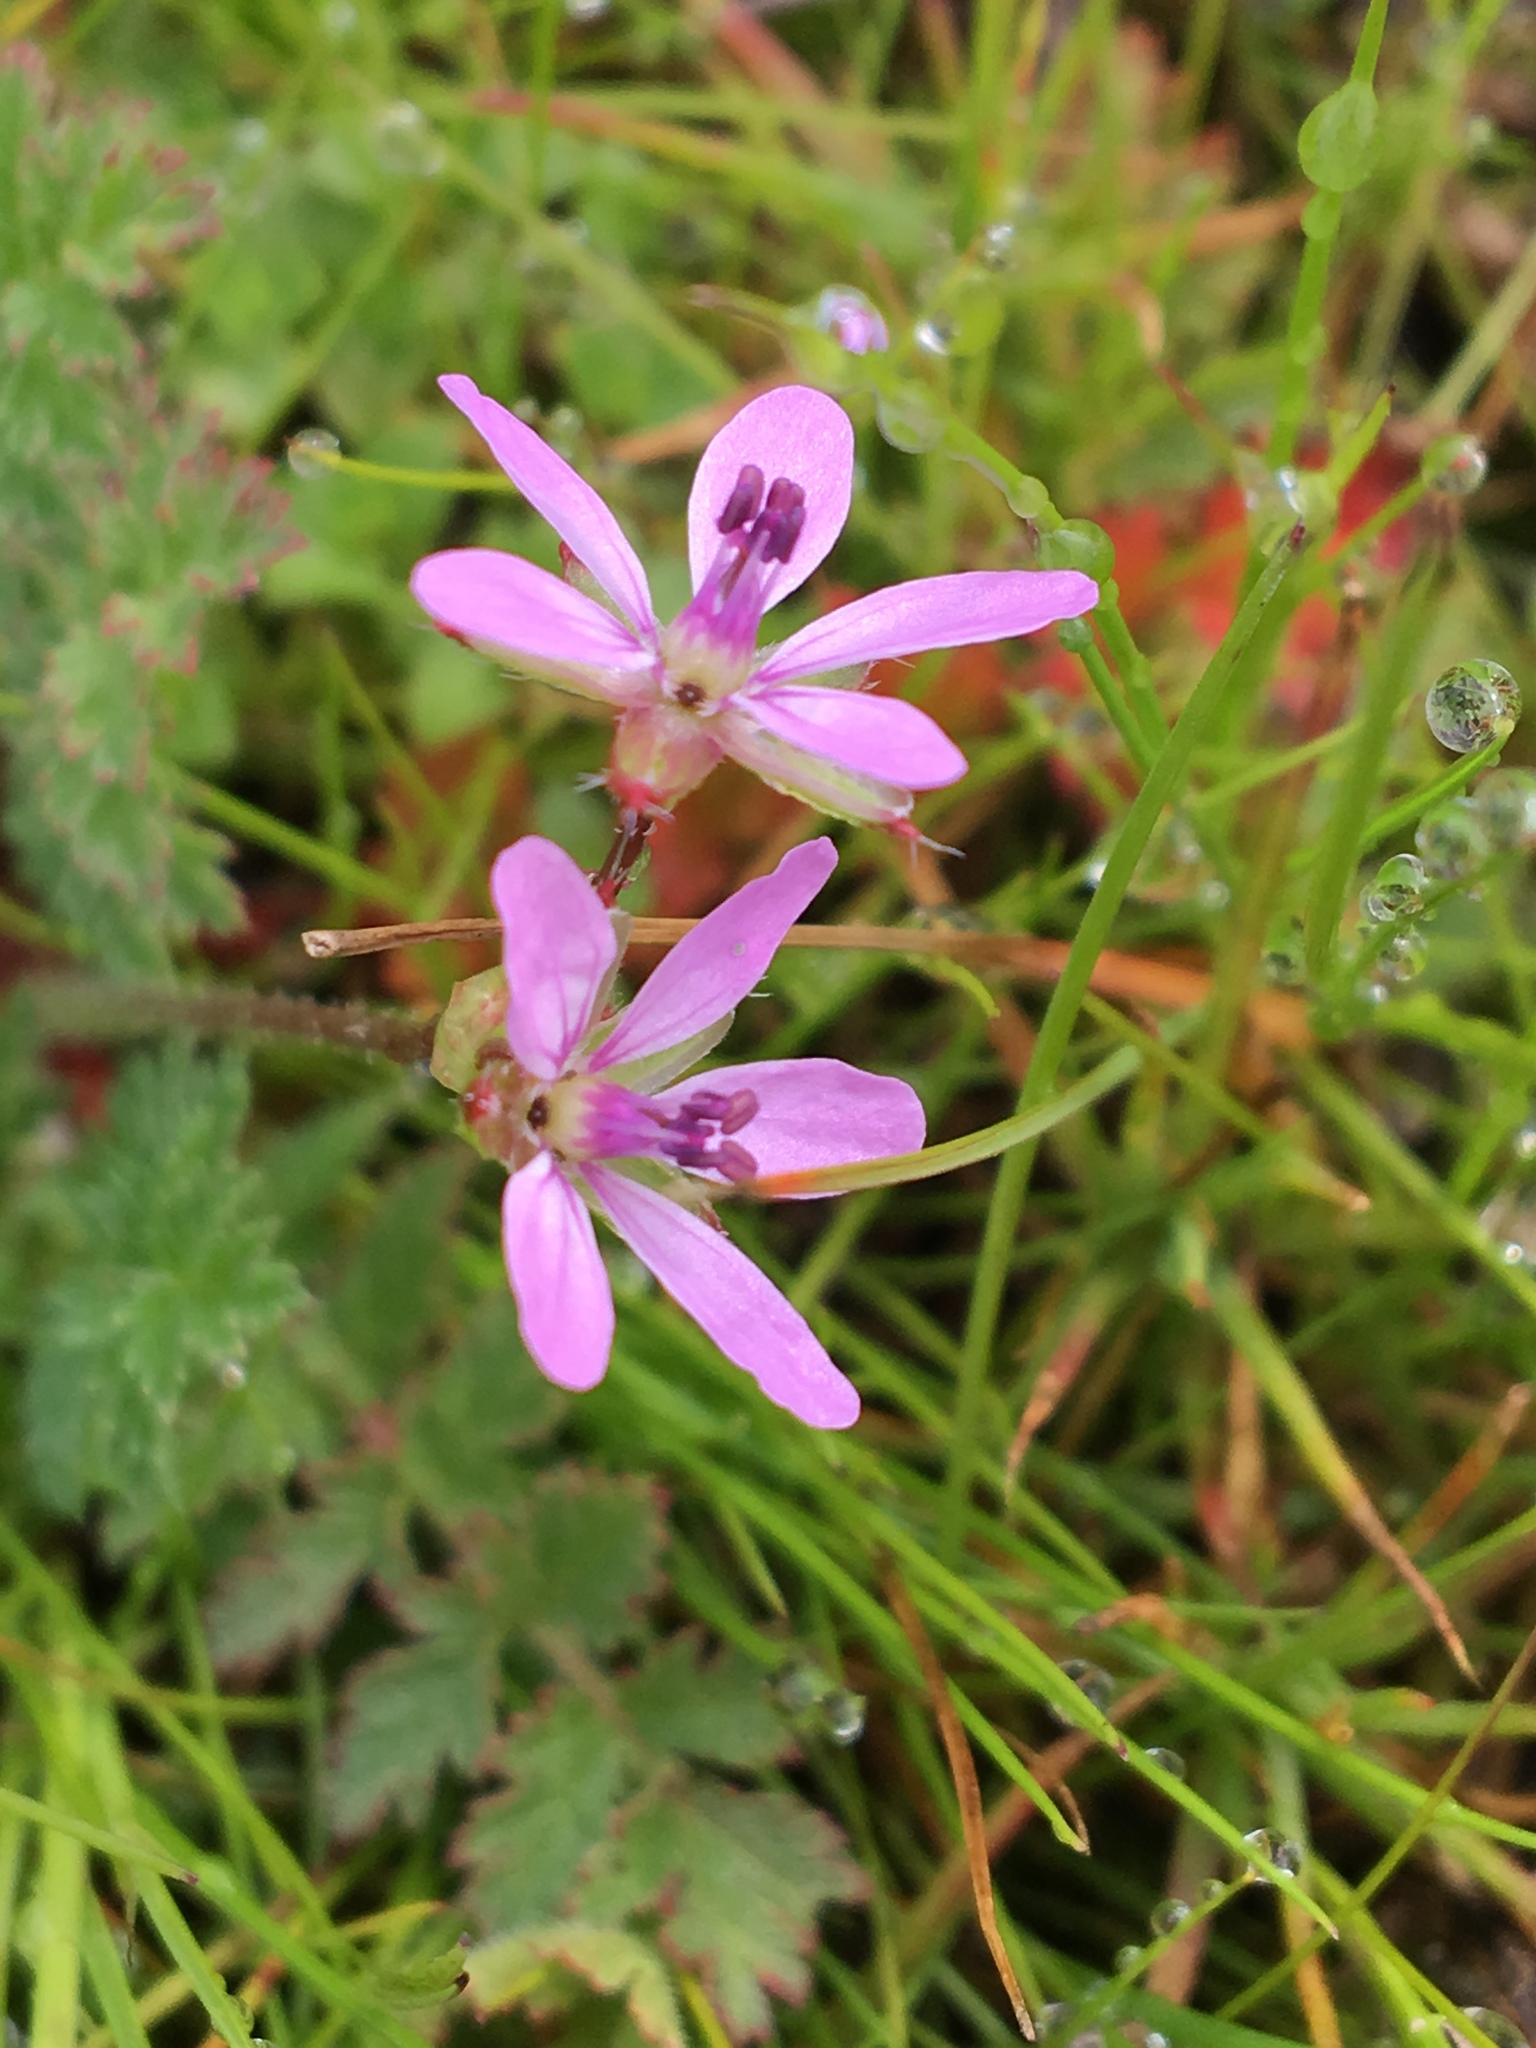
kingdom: Plantae
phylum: Tracheophyta
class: Magnoliopsida
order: Geraniales
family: Geraniaceae
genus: Erodium
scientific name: Erodium cicutarium
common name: Common stork's-bill
